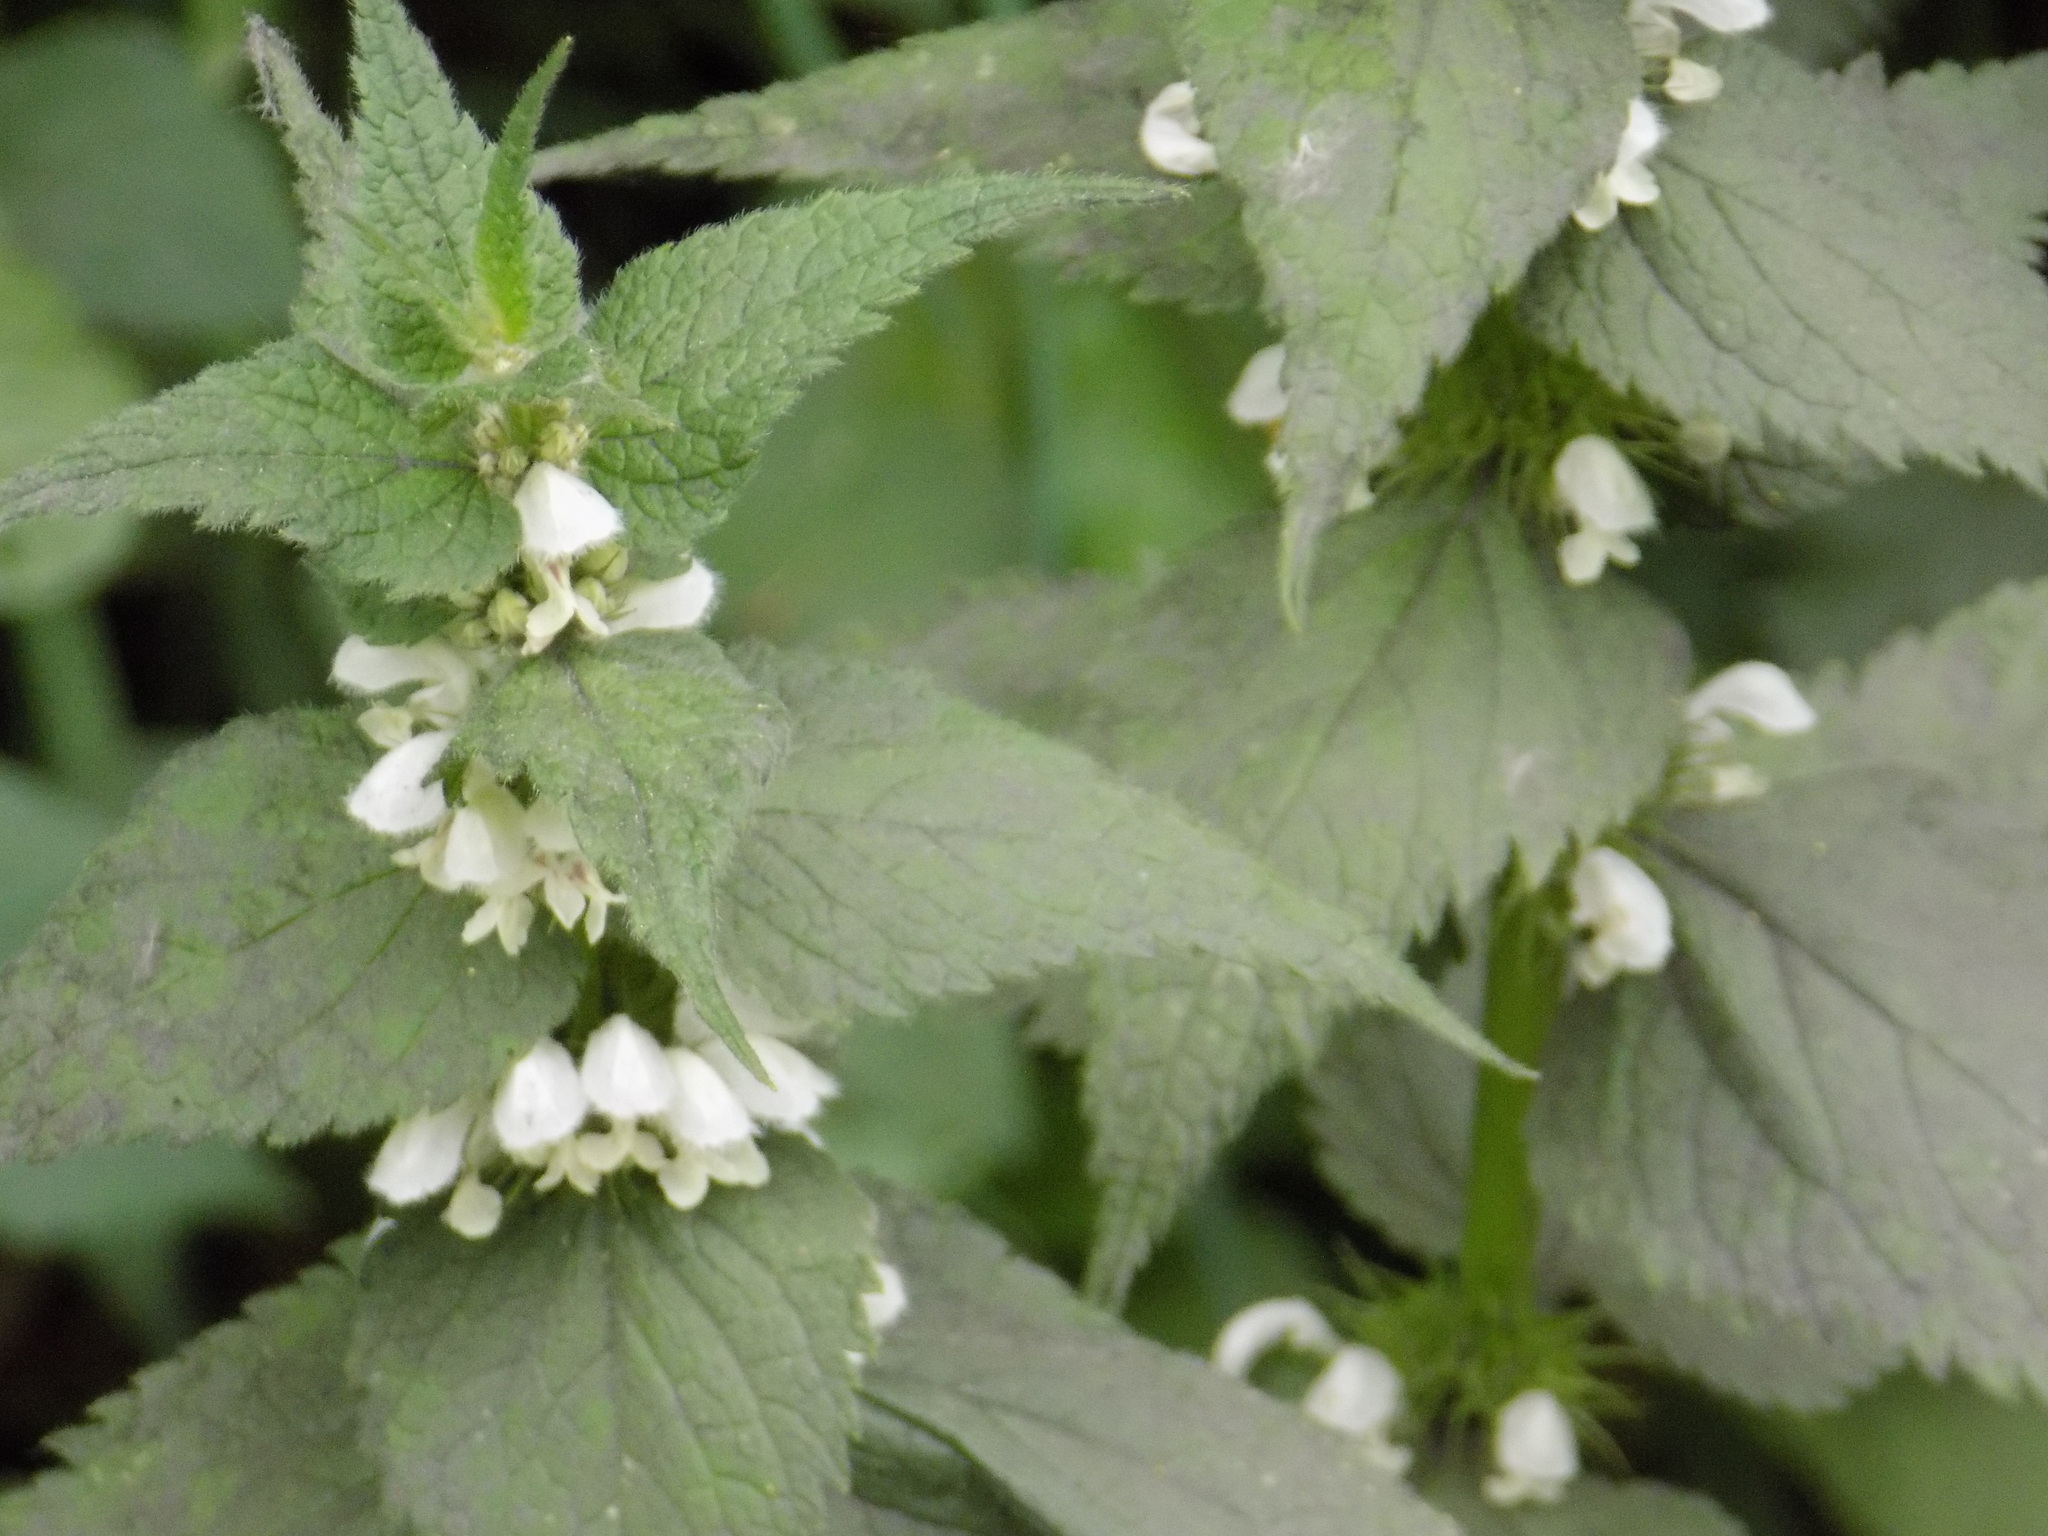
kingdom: Plantae
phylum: Tracheophyta
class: Magnoliopsida
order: Lamiales
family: Lamiaceae
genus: Lamium
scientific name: Lamium album
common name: White dead-nettle
